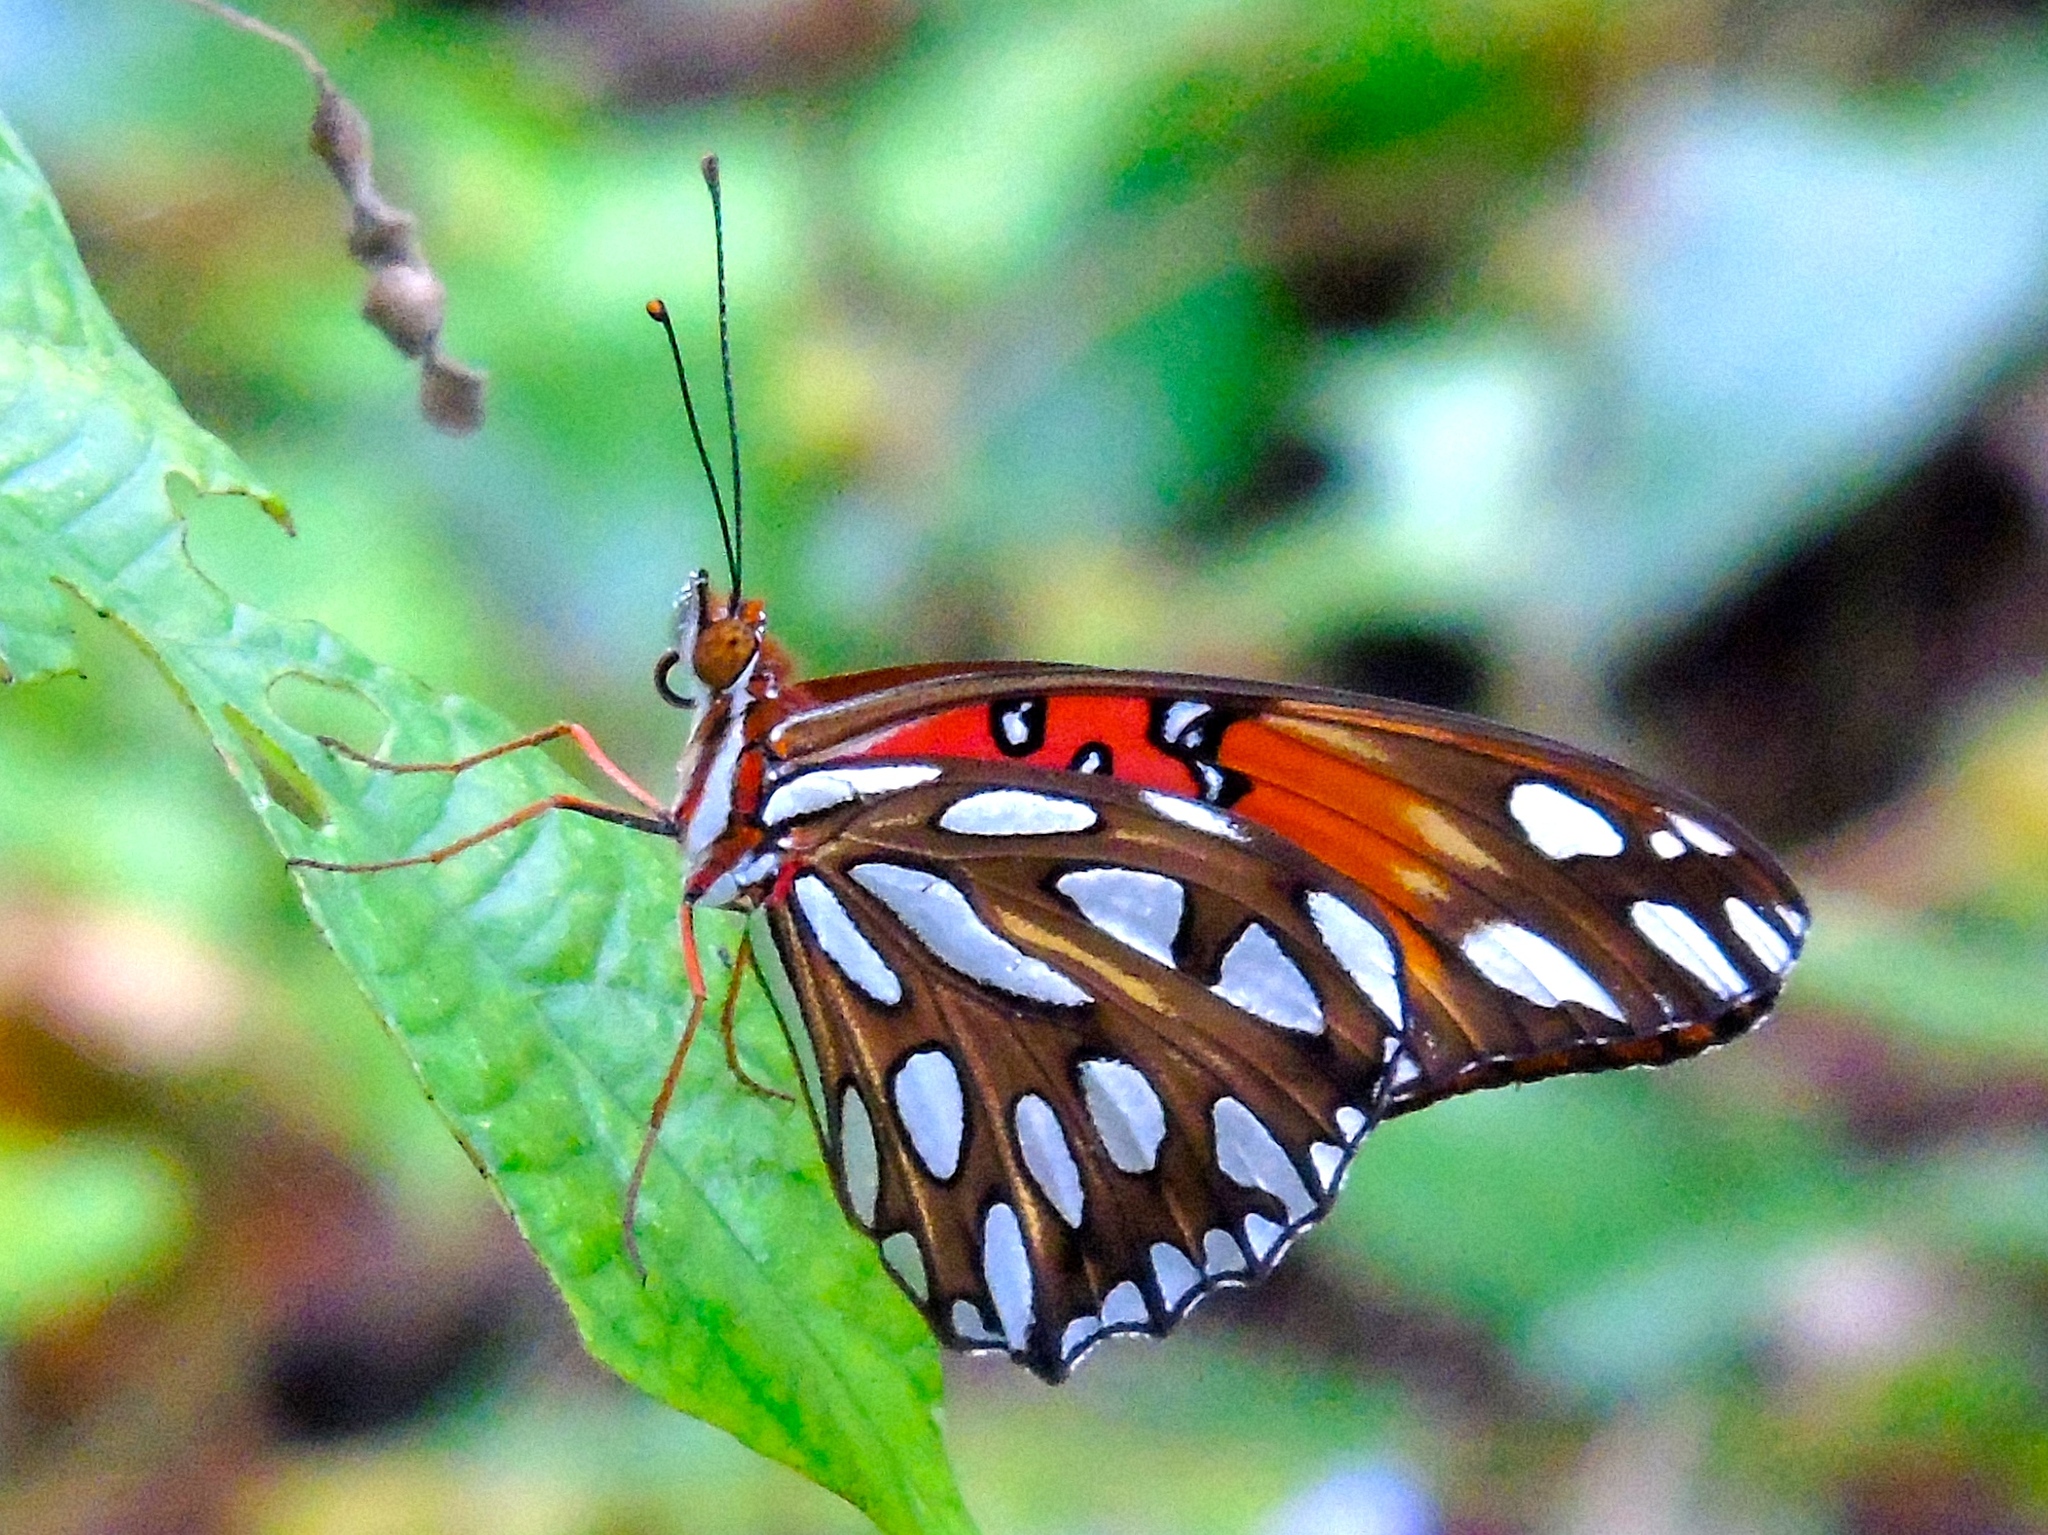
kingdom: Animalia
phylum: Arthropoda
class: Insecta
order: Lepidoptera
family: Nymphalidae
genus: Dione
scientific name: Dione vanillae
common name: Gulf fritillary
